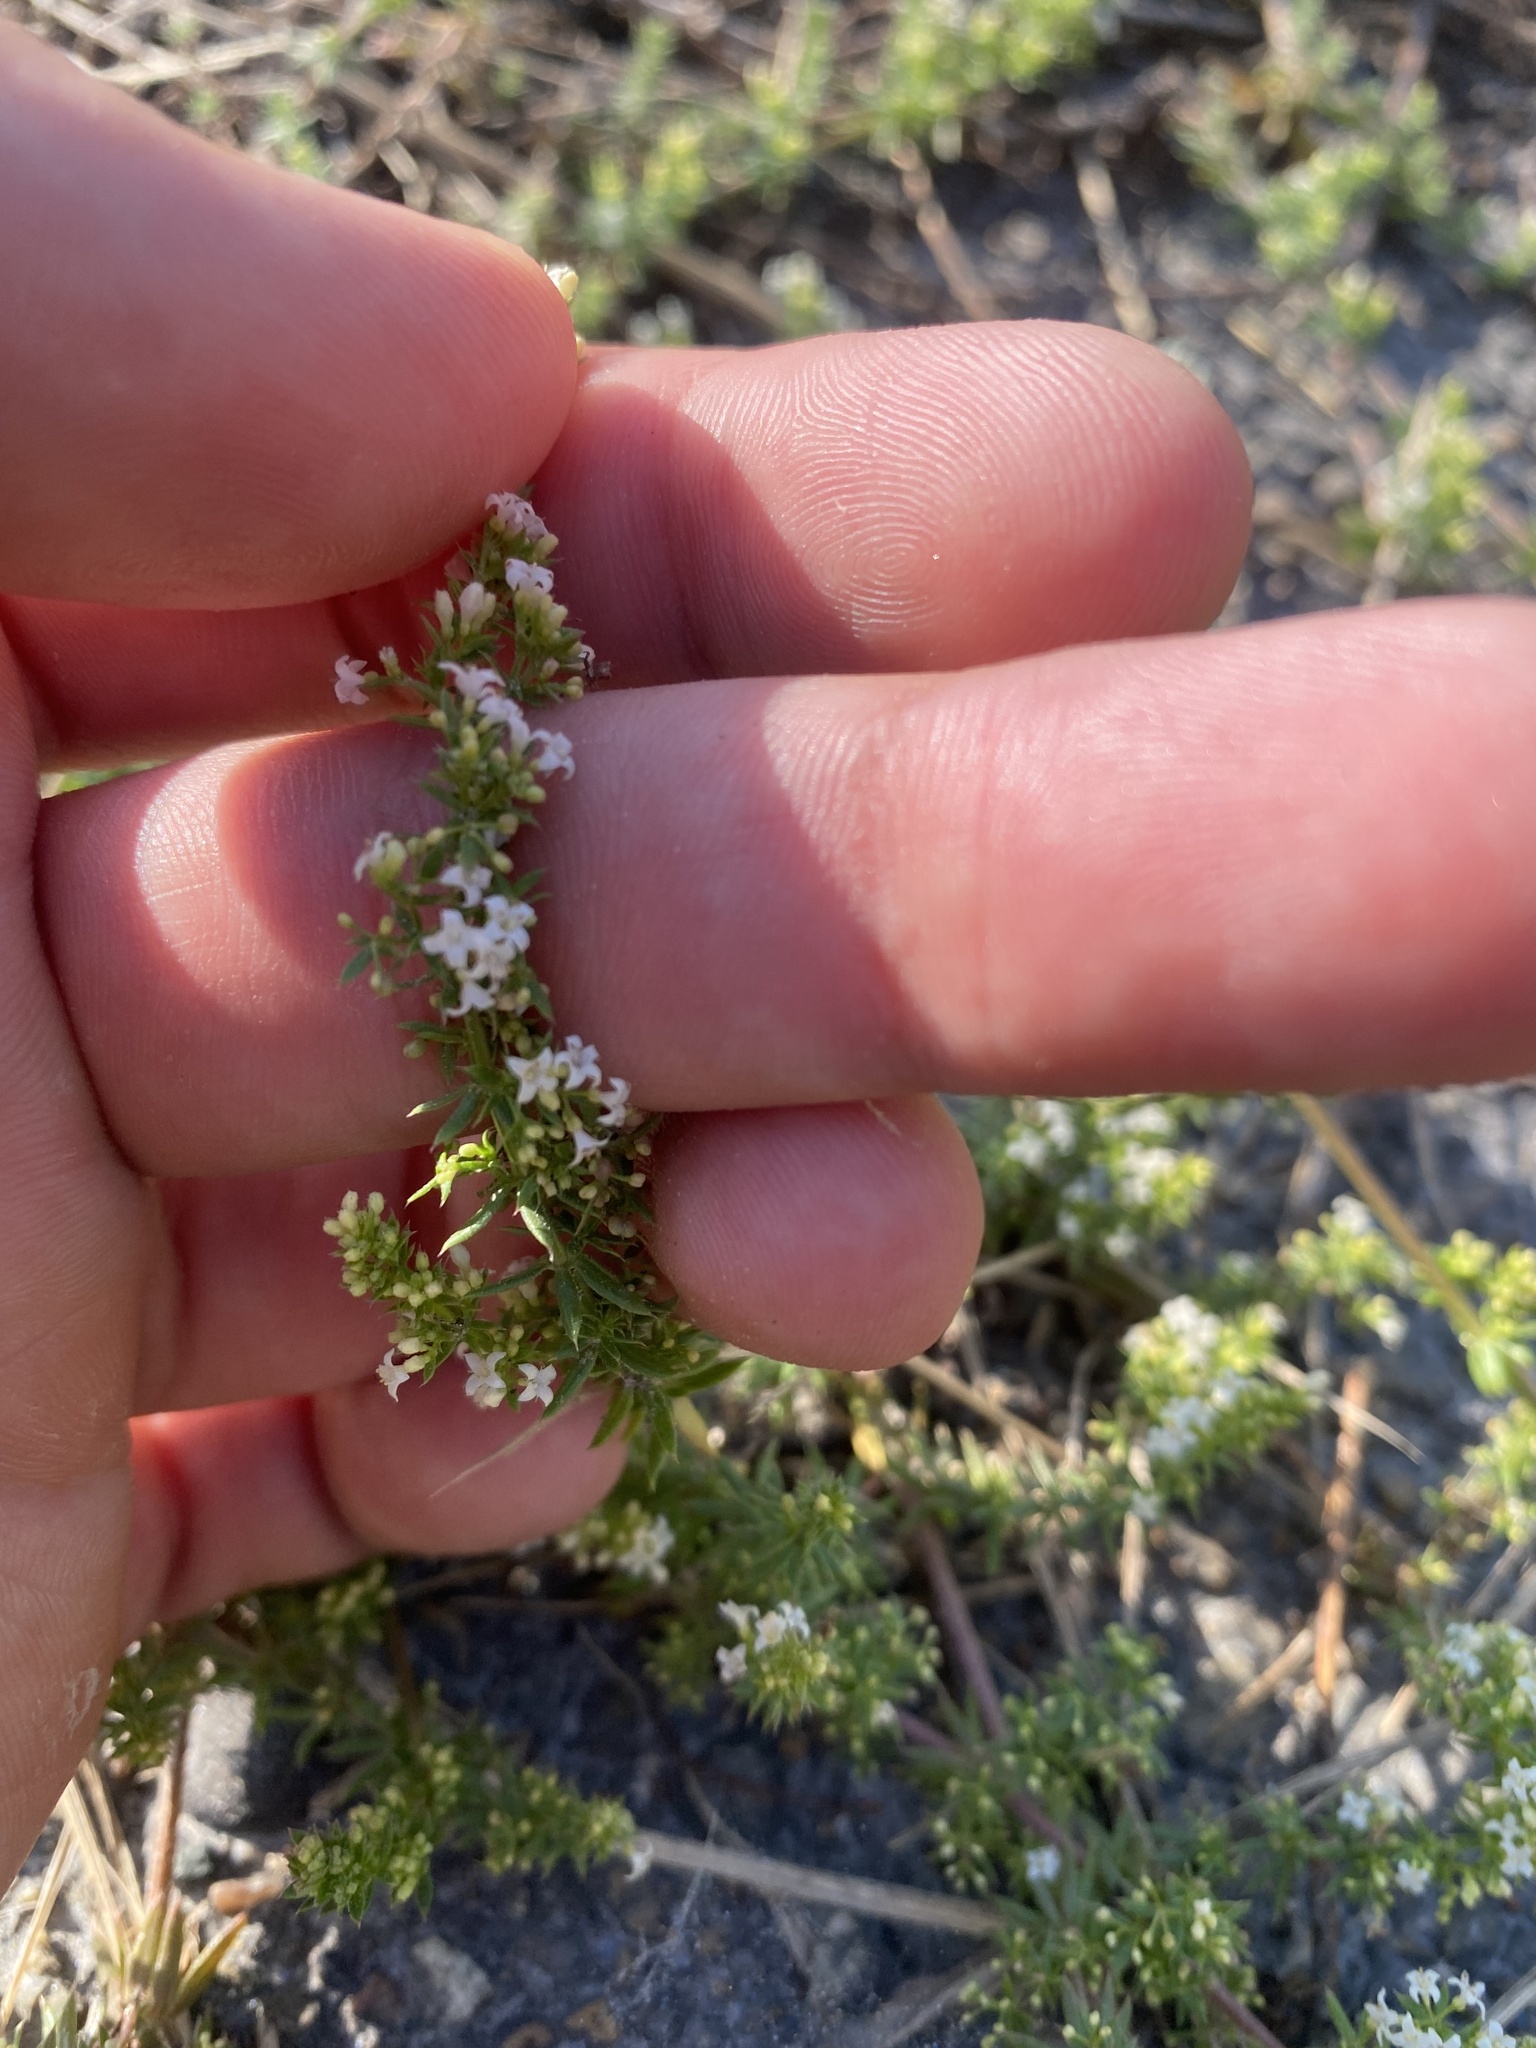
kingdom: Plantae
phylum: Tracheophyta
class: Magnoliopsida
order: Gentianales
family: Rubiaceae
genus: Galium
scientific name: Galium humifusum
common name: Spreading bedstraw
